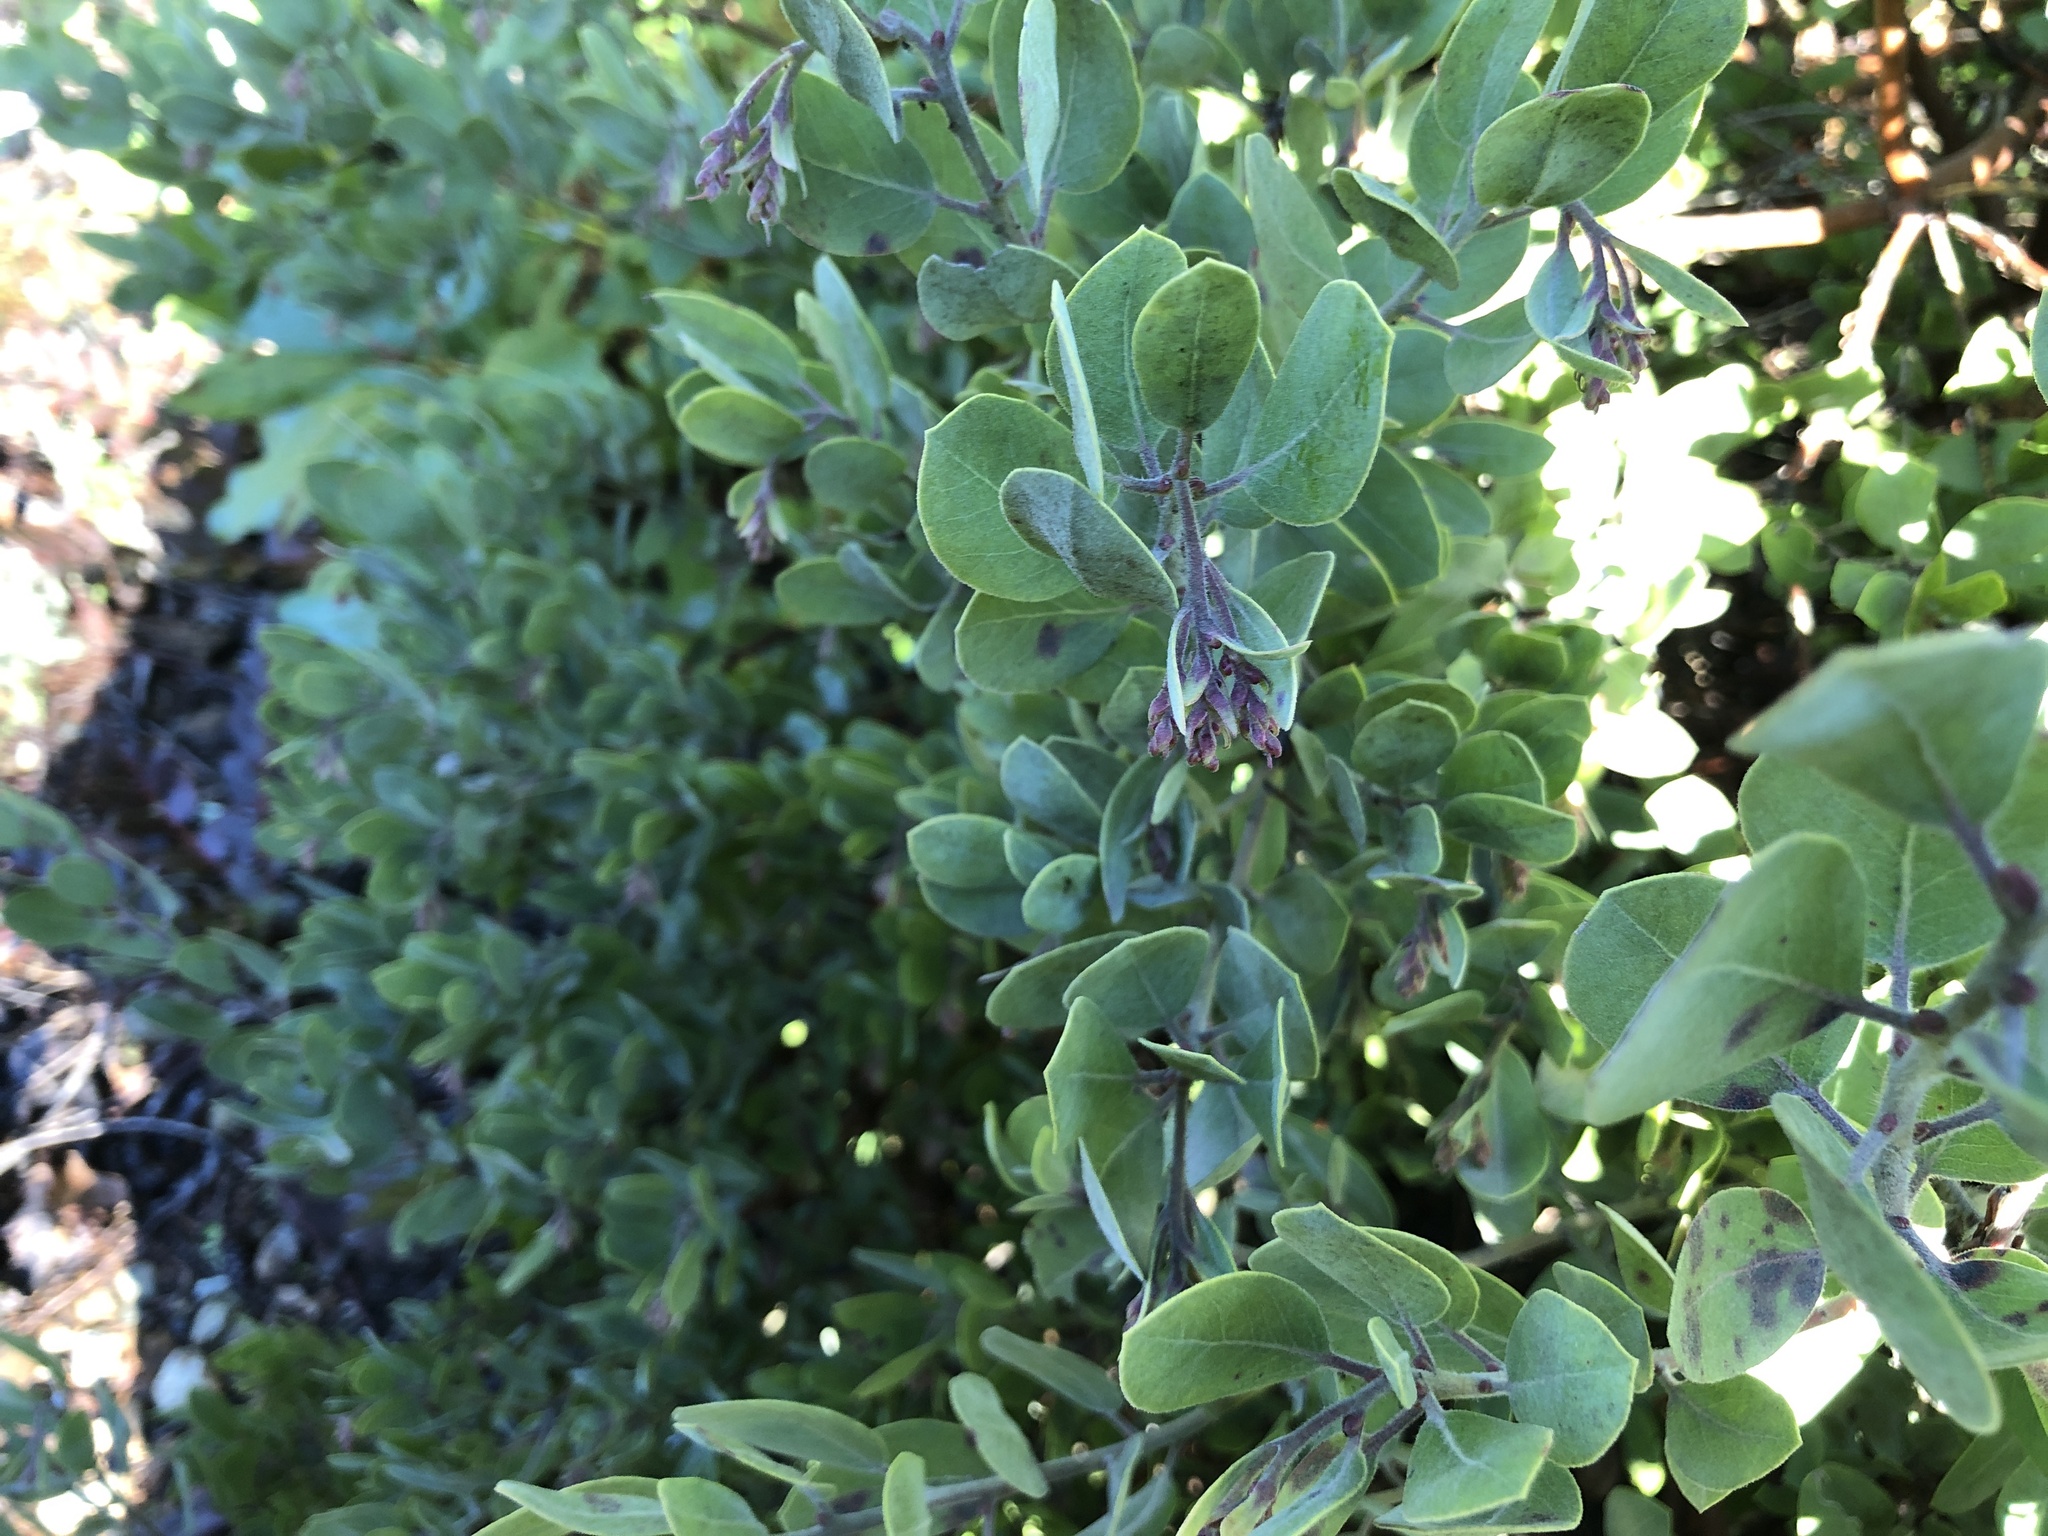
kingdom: Plantae
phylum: Tracheophyta
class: Magnoliopsida
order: Ericales
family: Ericaceae
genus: Arctostaphylos
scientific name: Arctostaphylos columbiana
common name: Bristly bearberry
